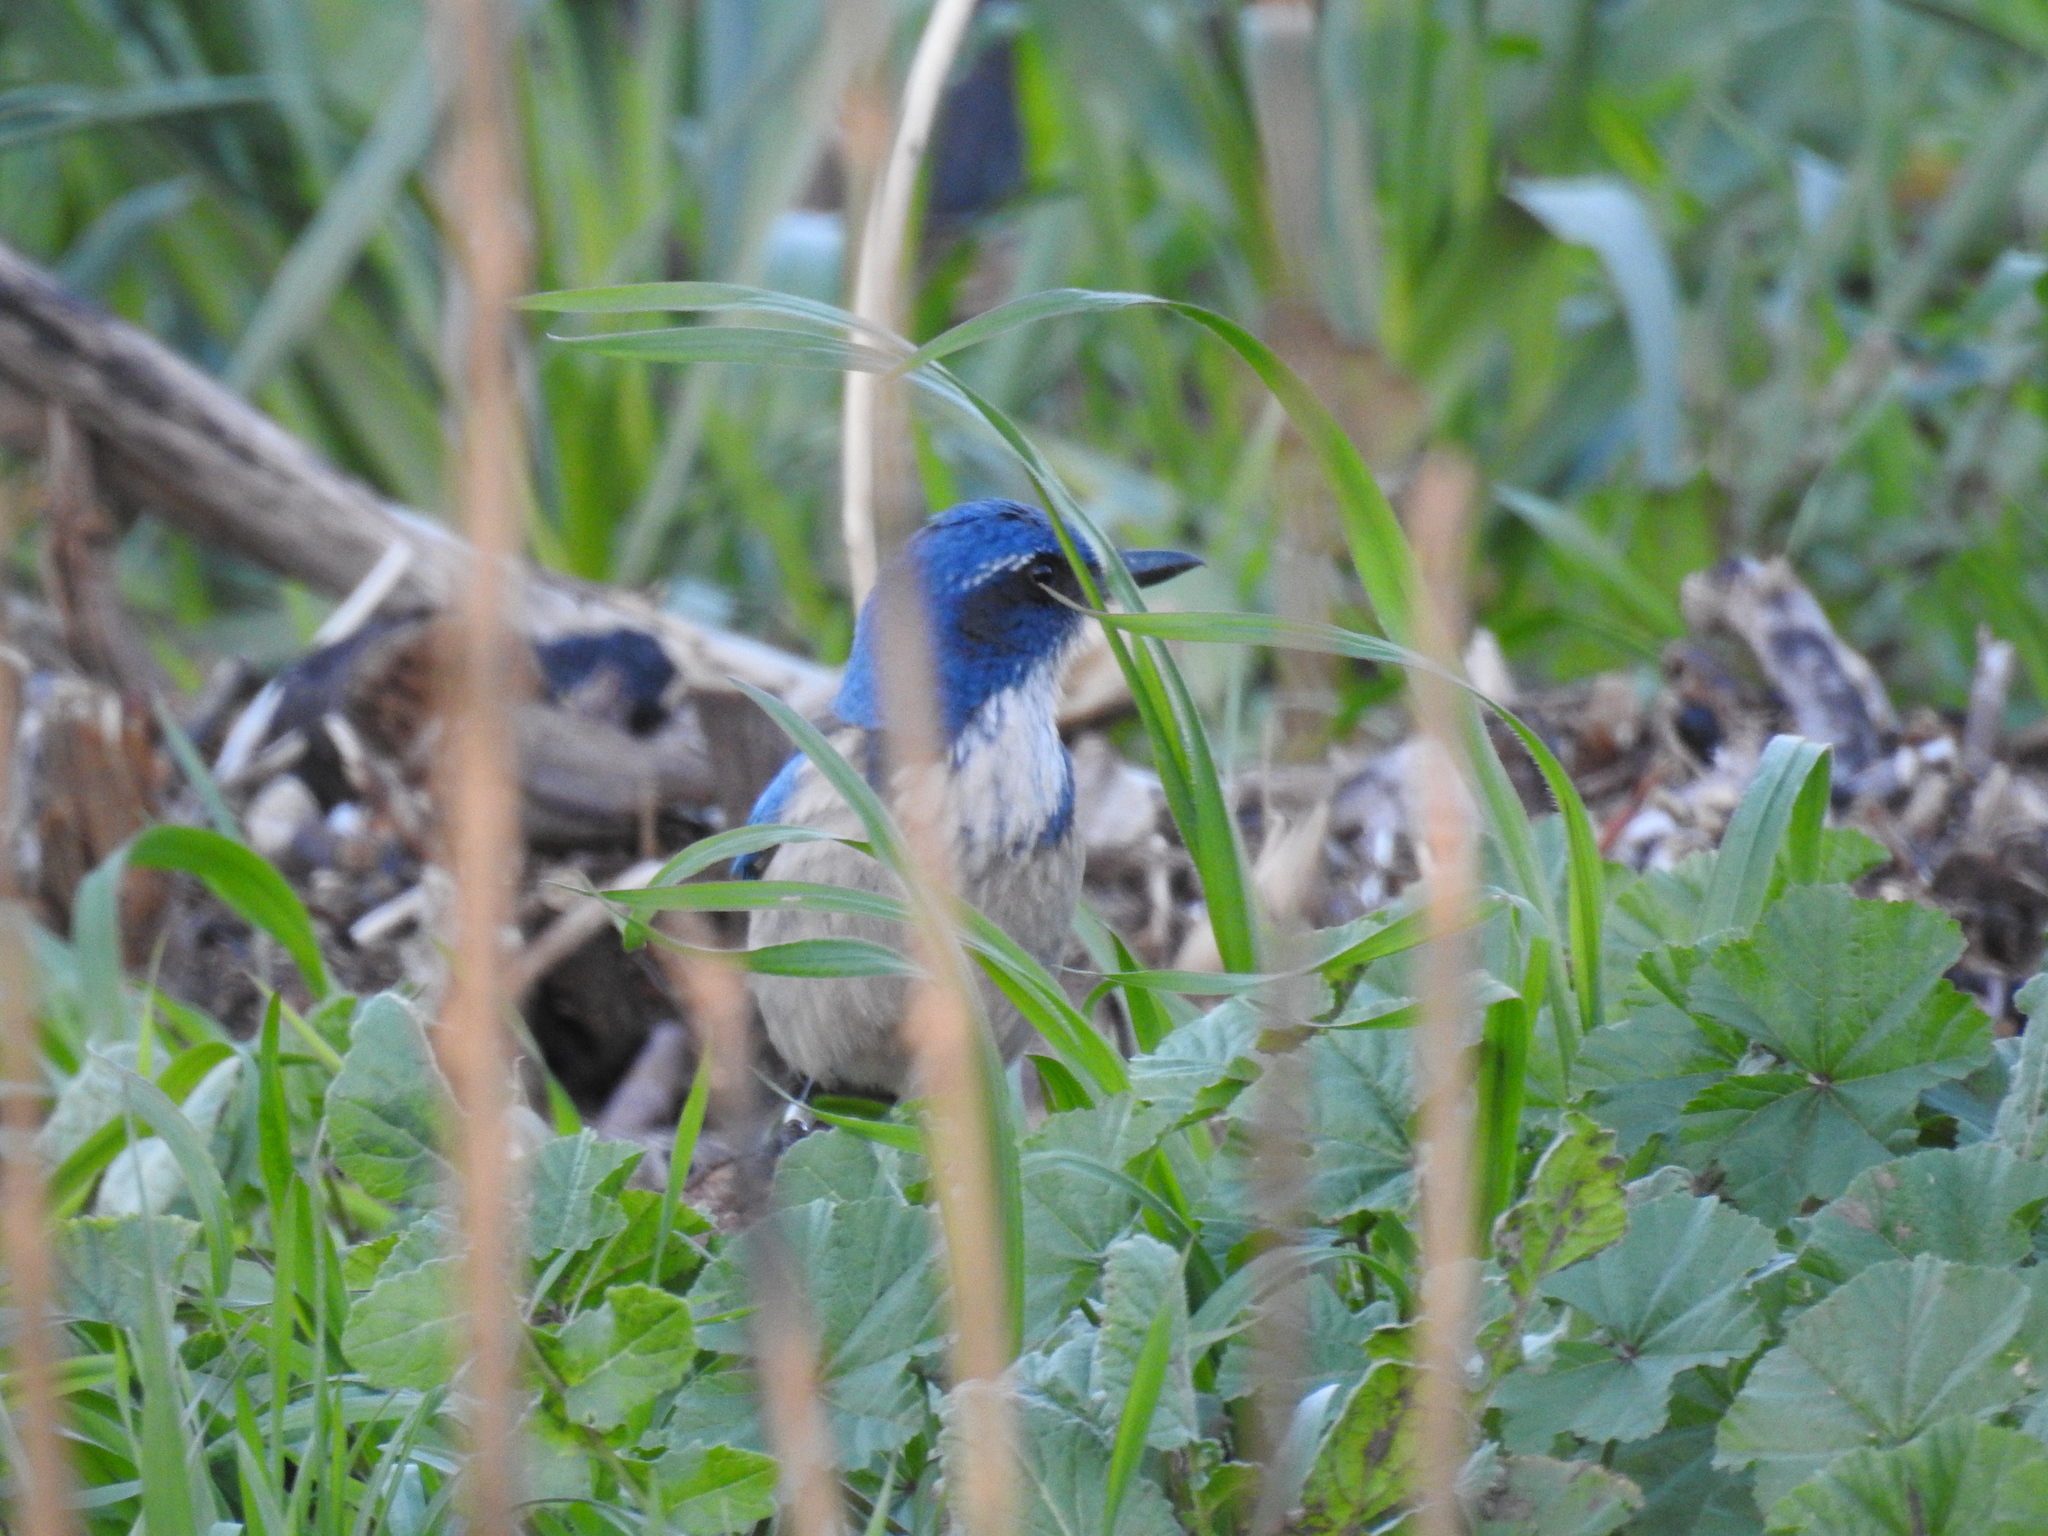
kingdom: Animalia
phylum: Chordata
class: Aves
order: Passeriformes
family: Corvidae
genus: Aphelocoma
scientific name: Aphelocoma californica
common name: California scrub-jay
